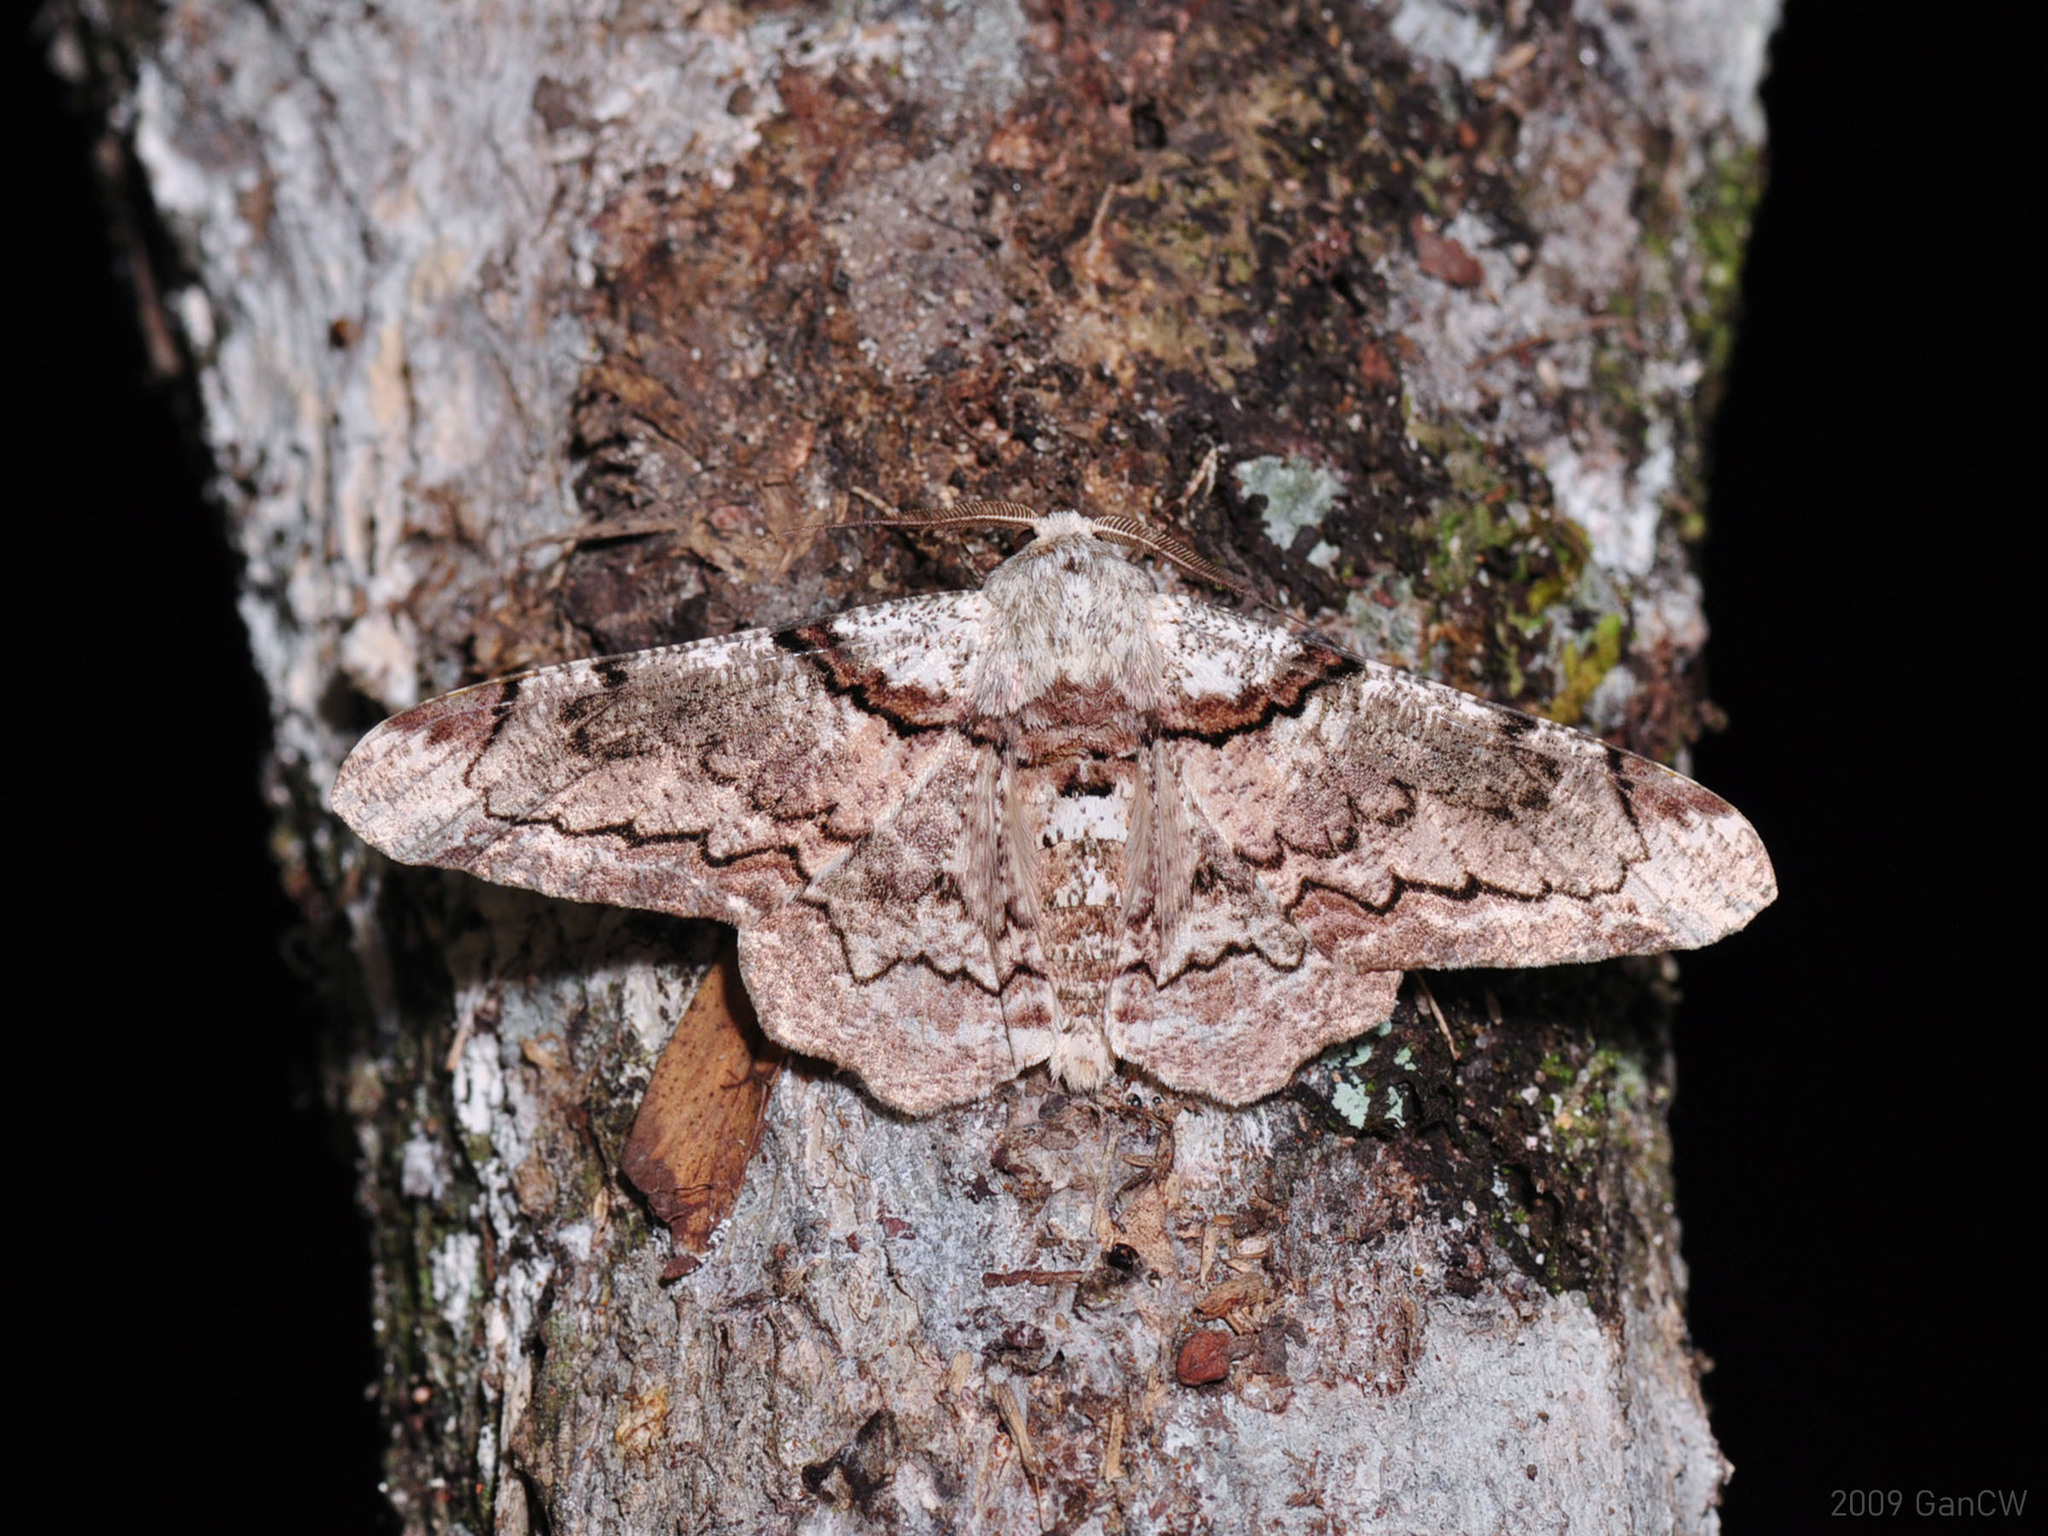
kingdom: Animalia
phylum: Arthropoda
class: Insecta
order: Lepidoptera
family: Geometridae
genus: Biston
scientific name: Biston regalis
